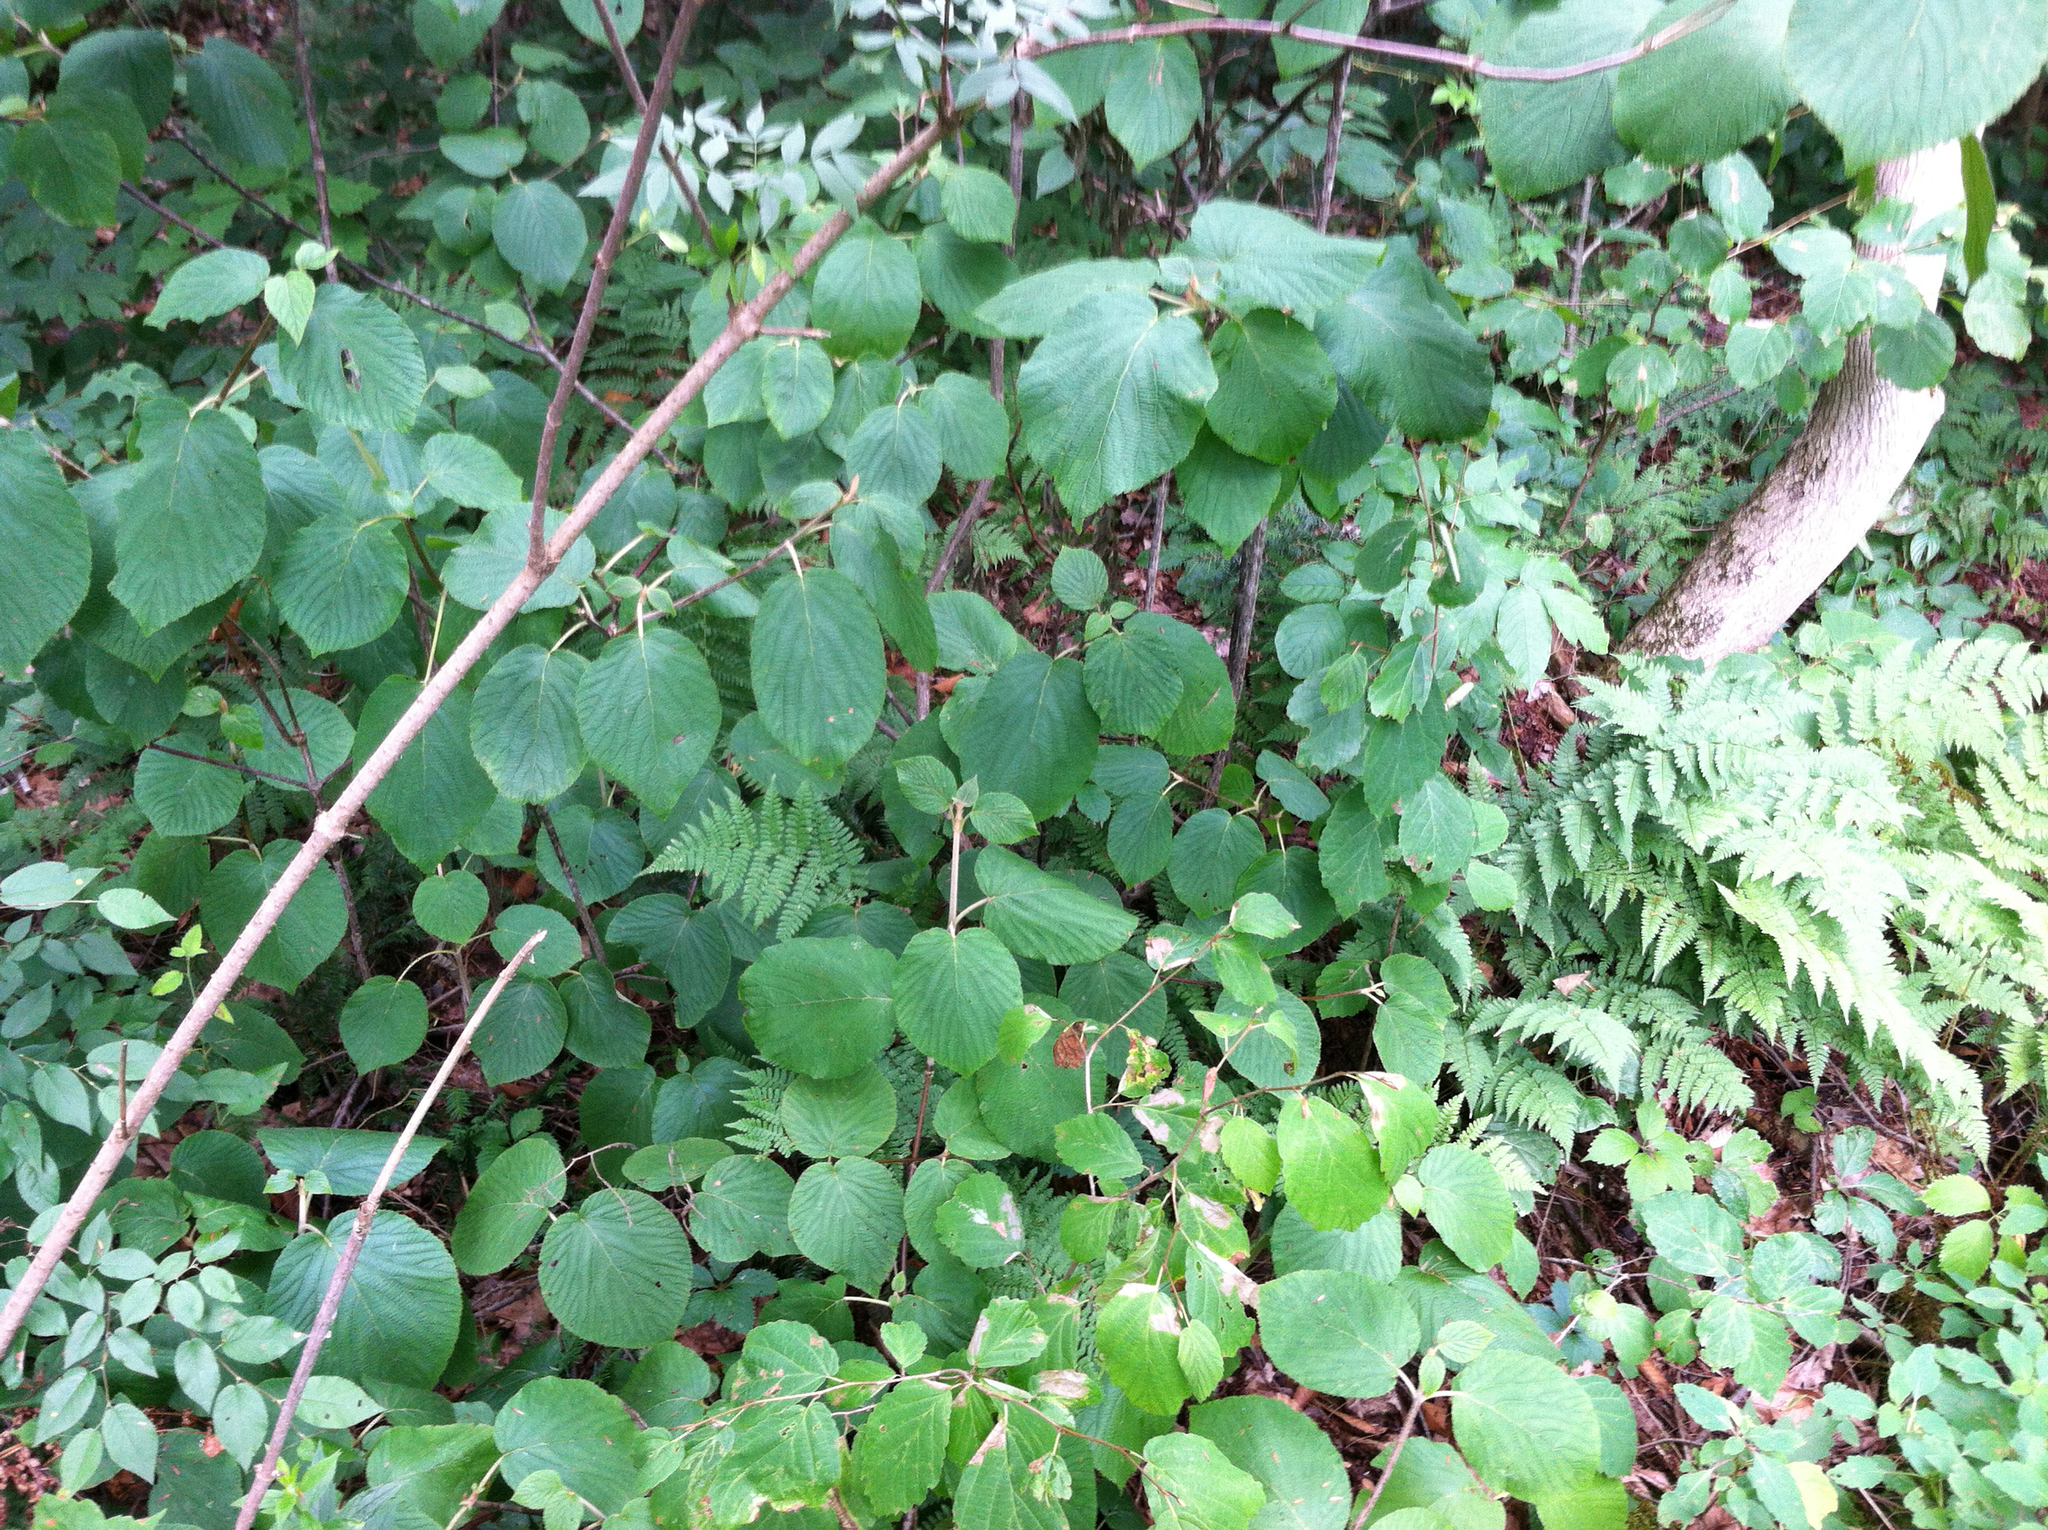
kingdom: Plantae
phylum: Tracheophyta
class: Magnoliopsida
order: Dipsacales
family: Viburnaceae
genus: Viburnum
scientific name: Viburnum lantanoides
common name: Hobblebush
